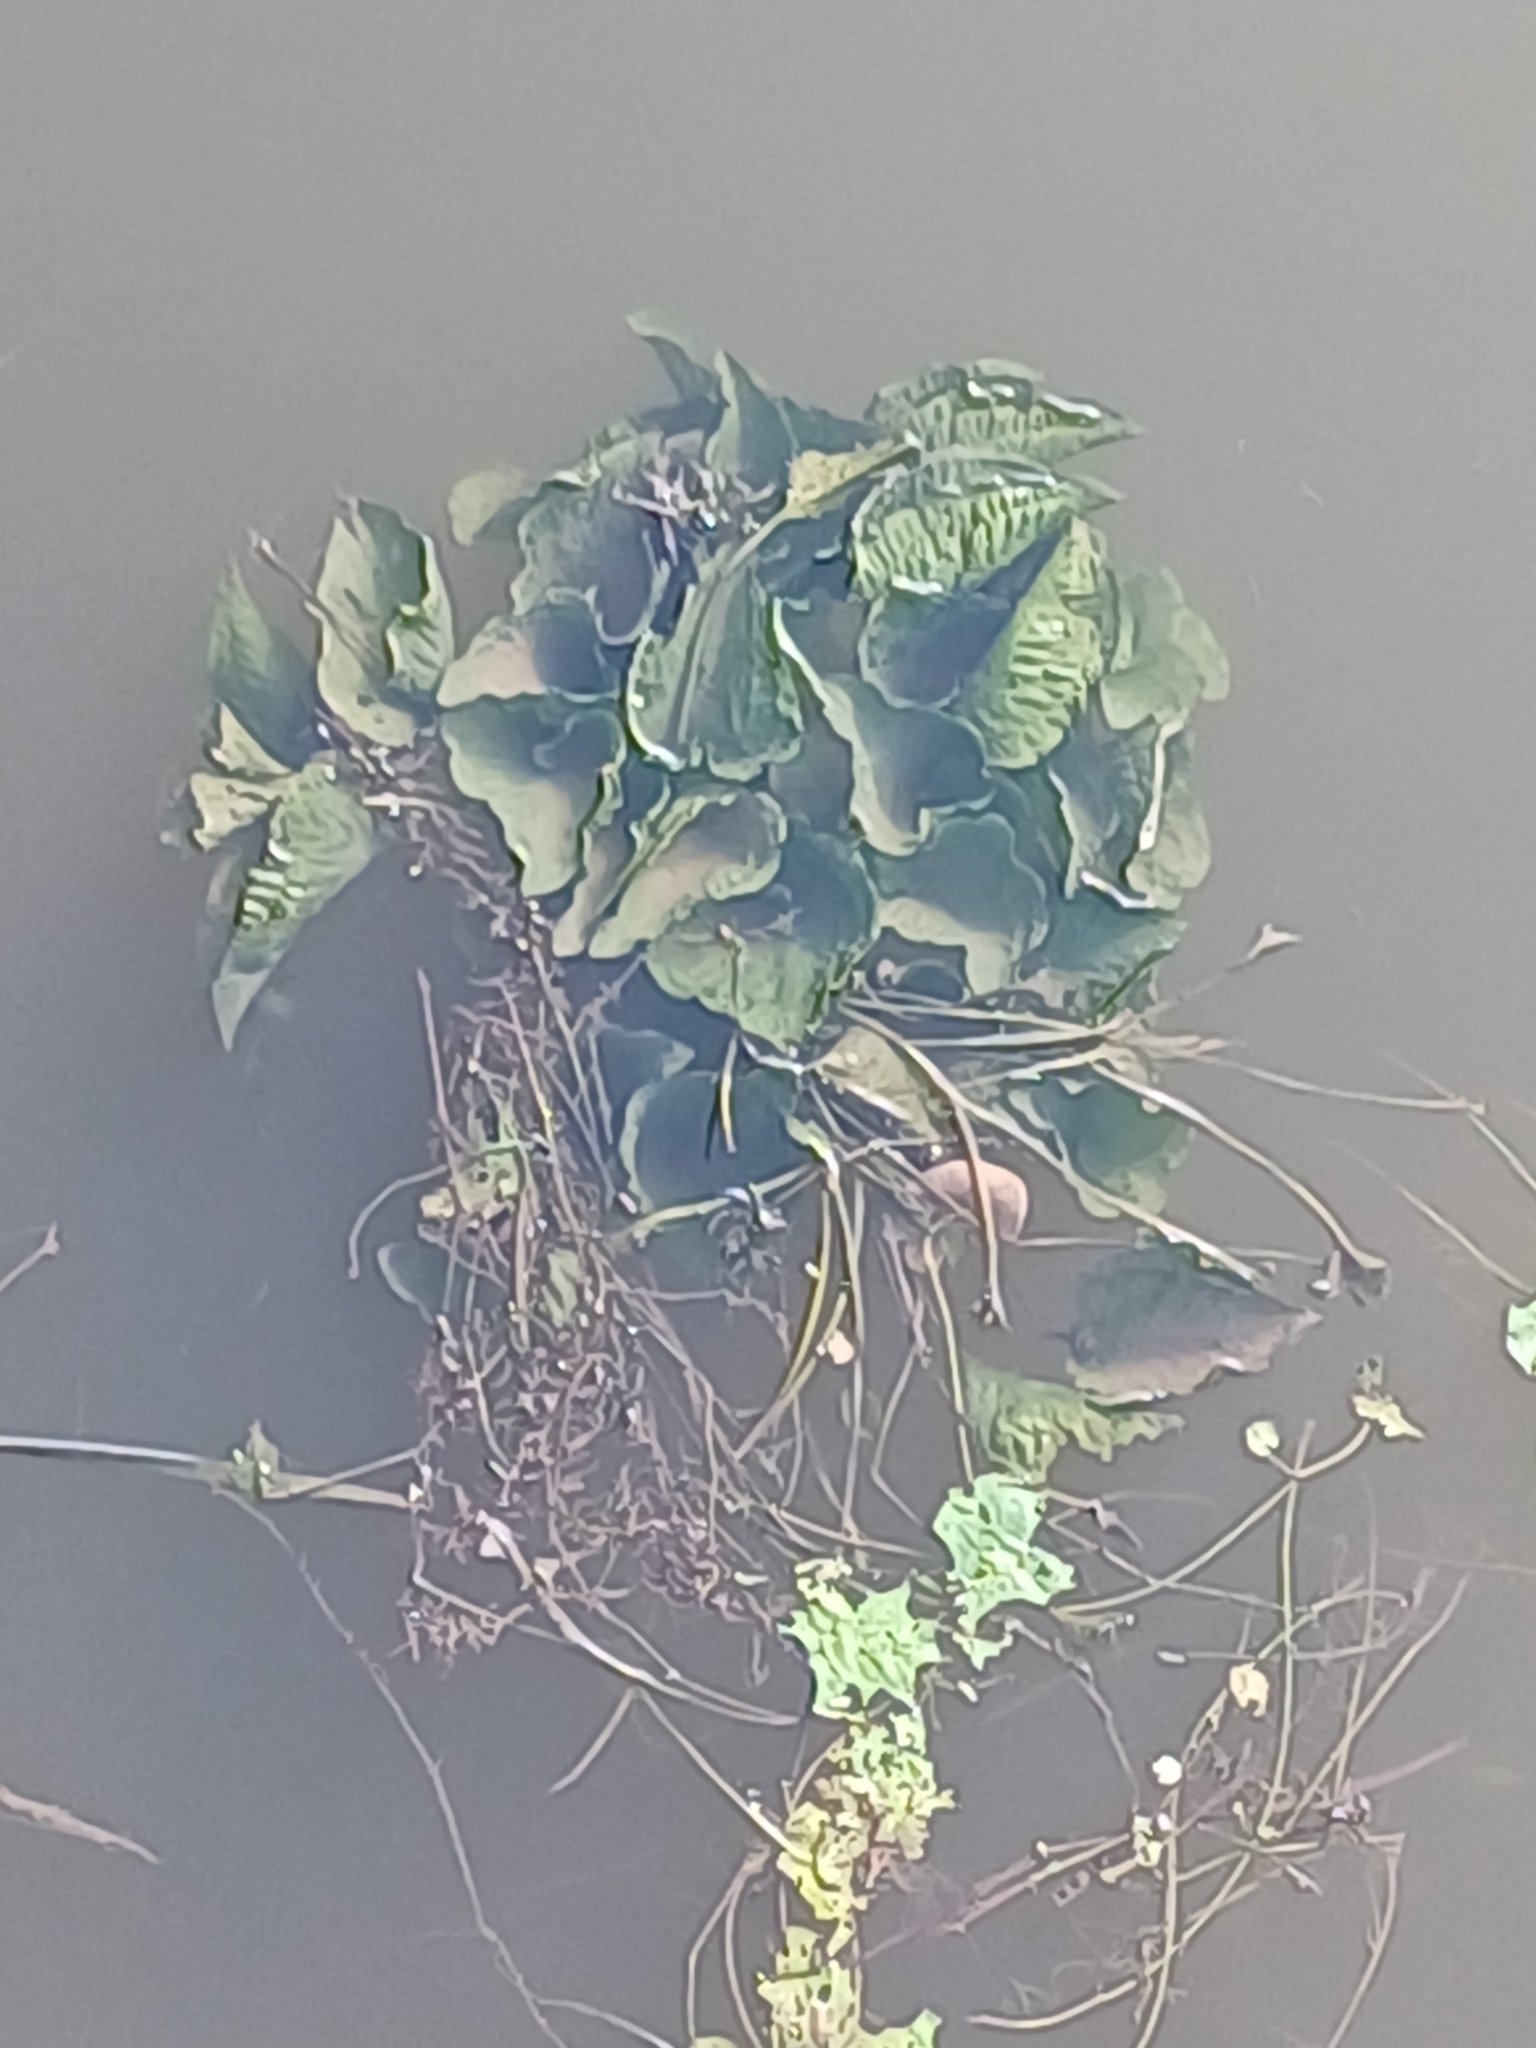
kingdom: Plantae
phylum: Tracheophyta
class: Liliopsida
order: Alismatales
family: Hydrocharitaceae
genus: Ottelia
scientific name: Ottelia alismoides
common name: Duck-lettuce
